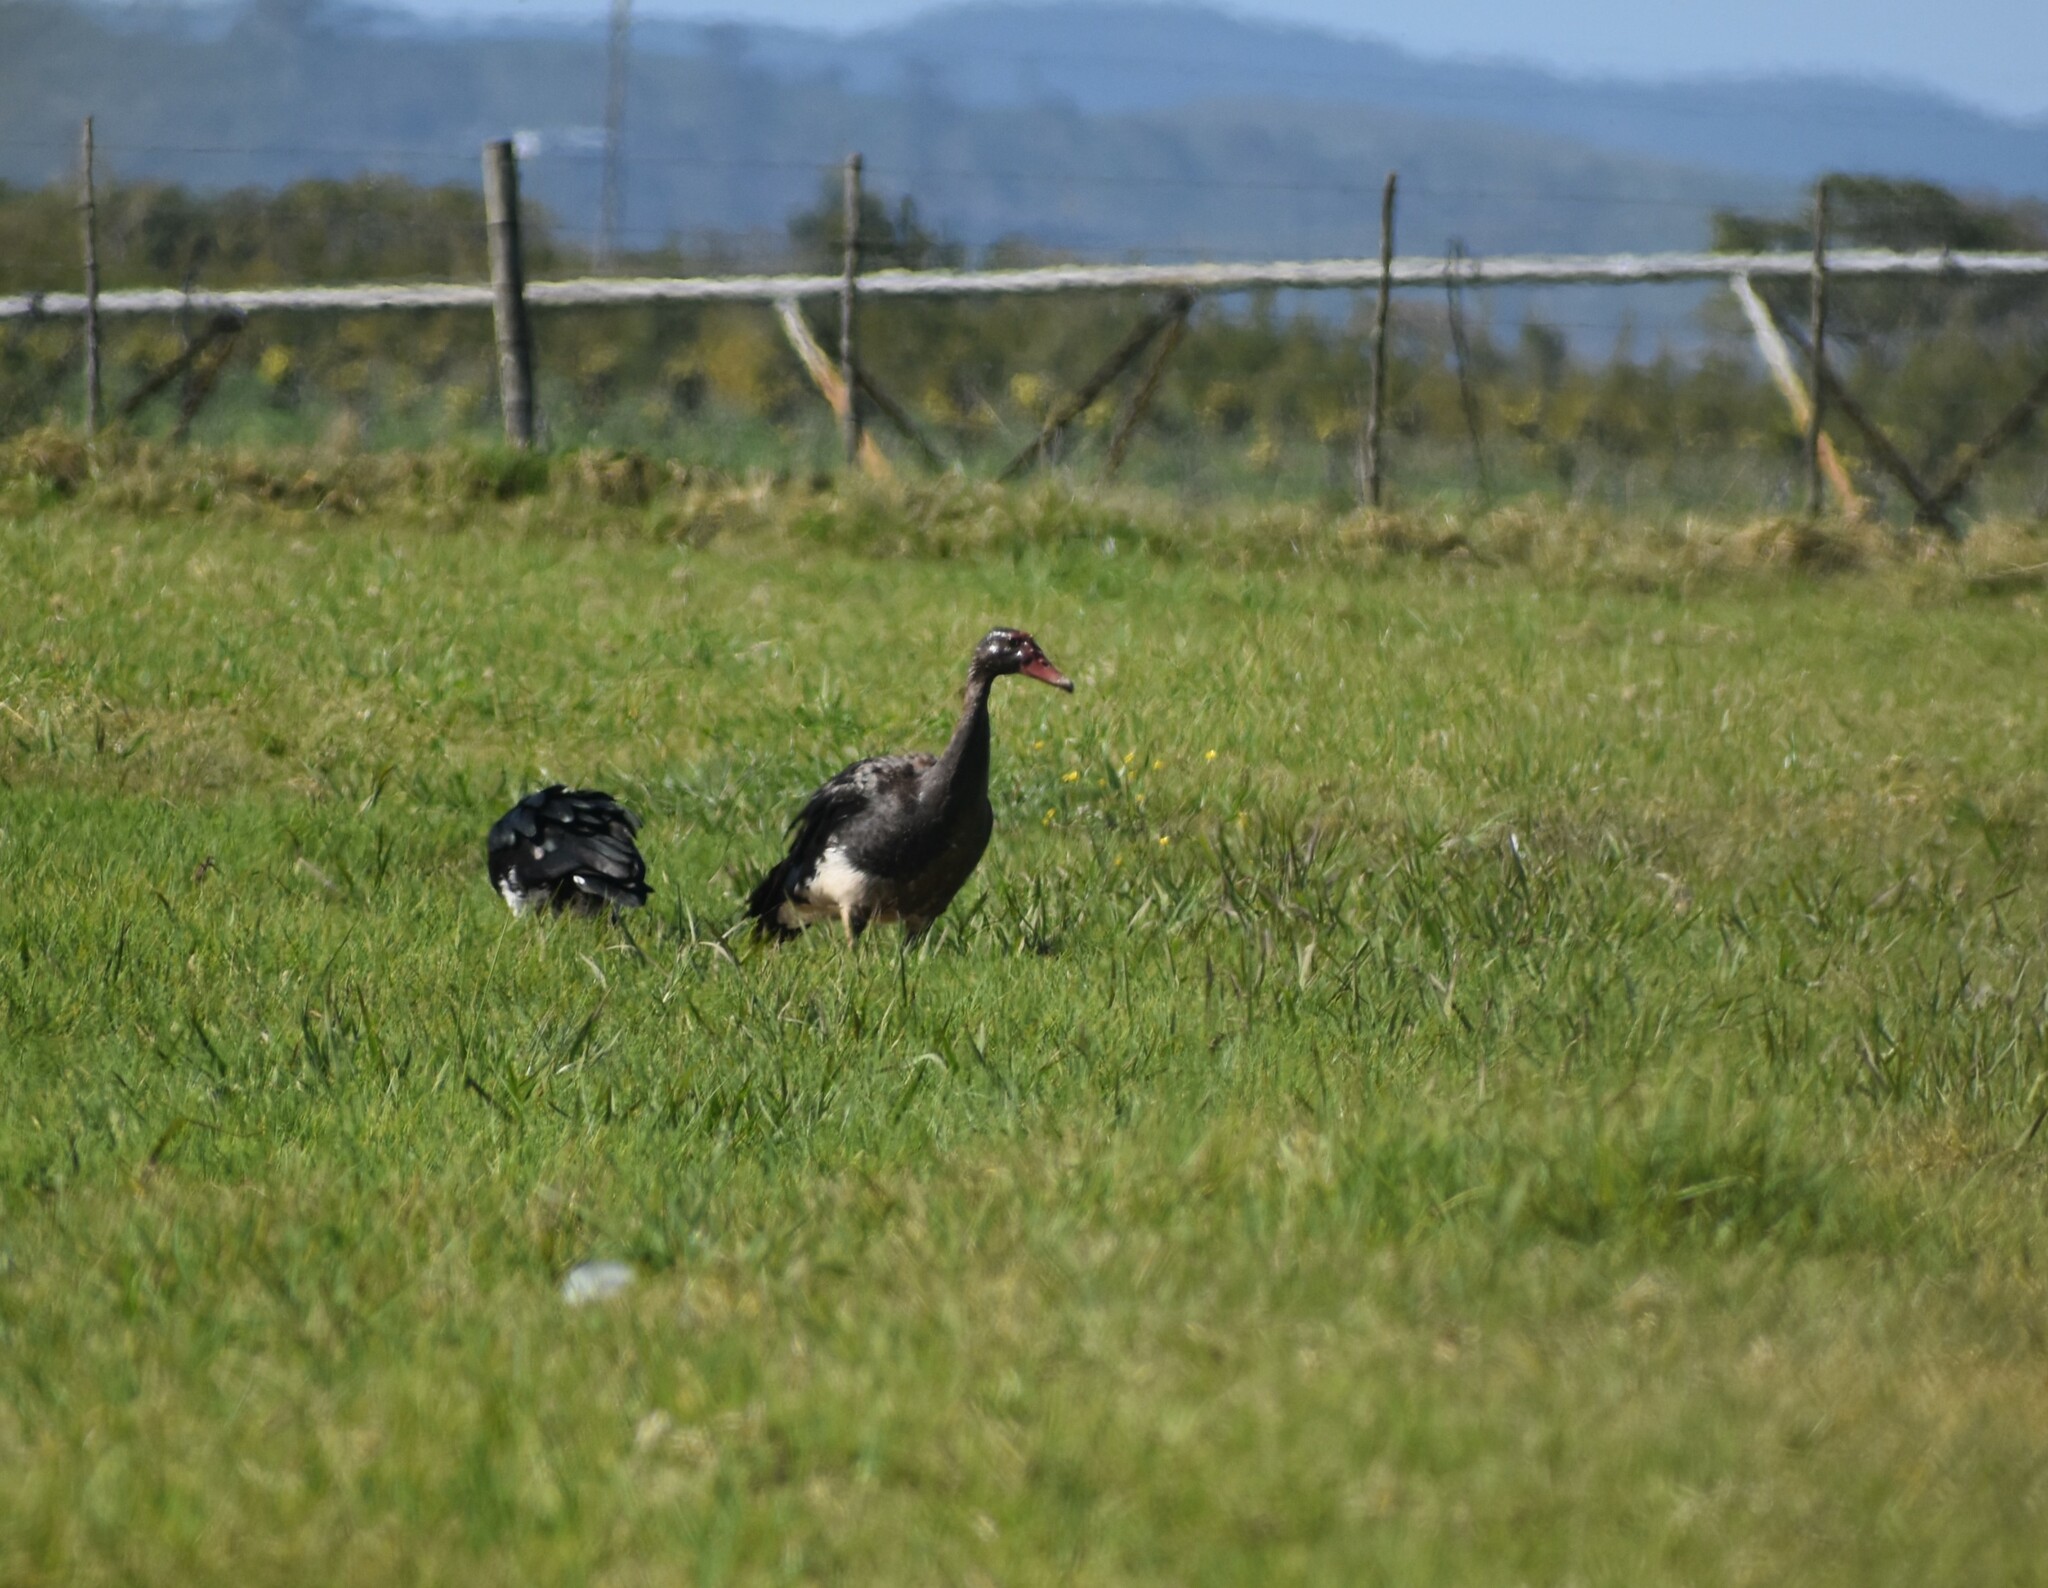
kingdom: Animalia
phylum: Chordata
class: Aves
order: Anseriformes
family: Anatidae
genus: Plectropterus
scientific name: Plectropterus gambensis
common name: Spur-winged goose
